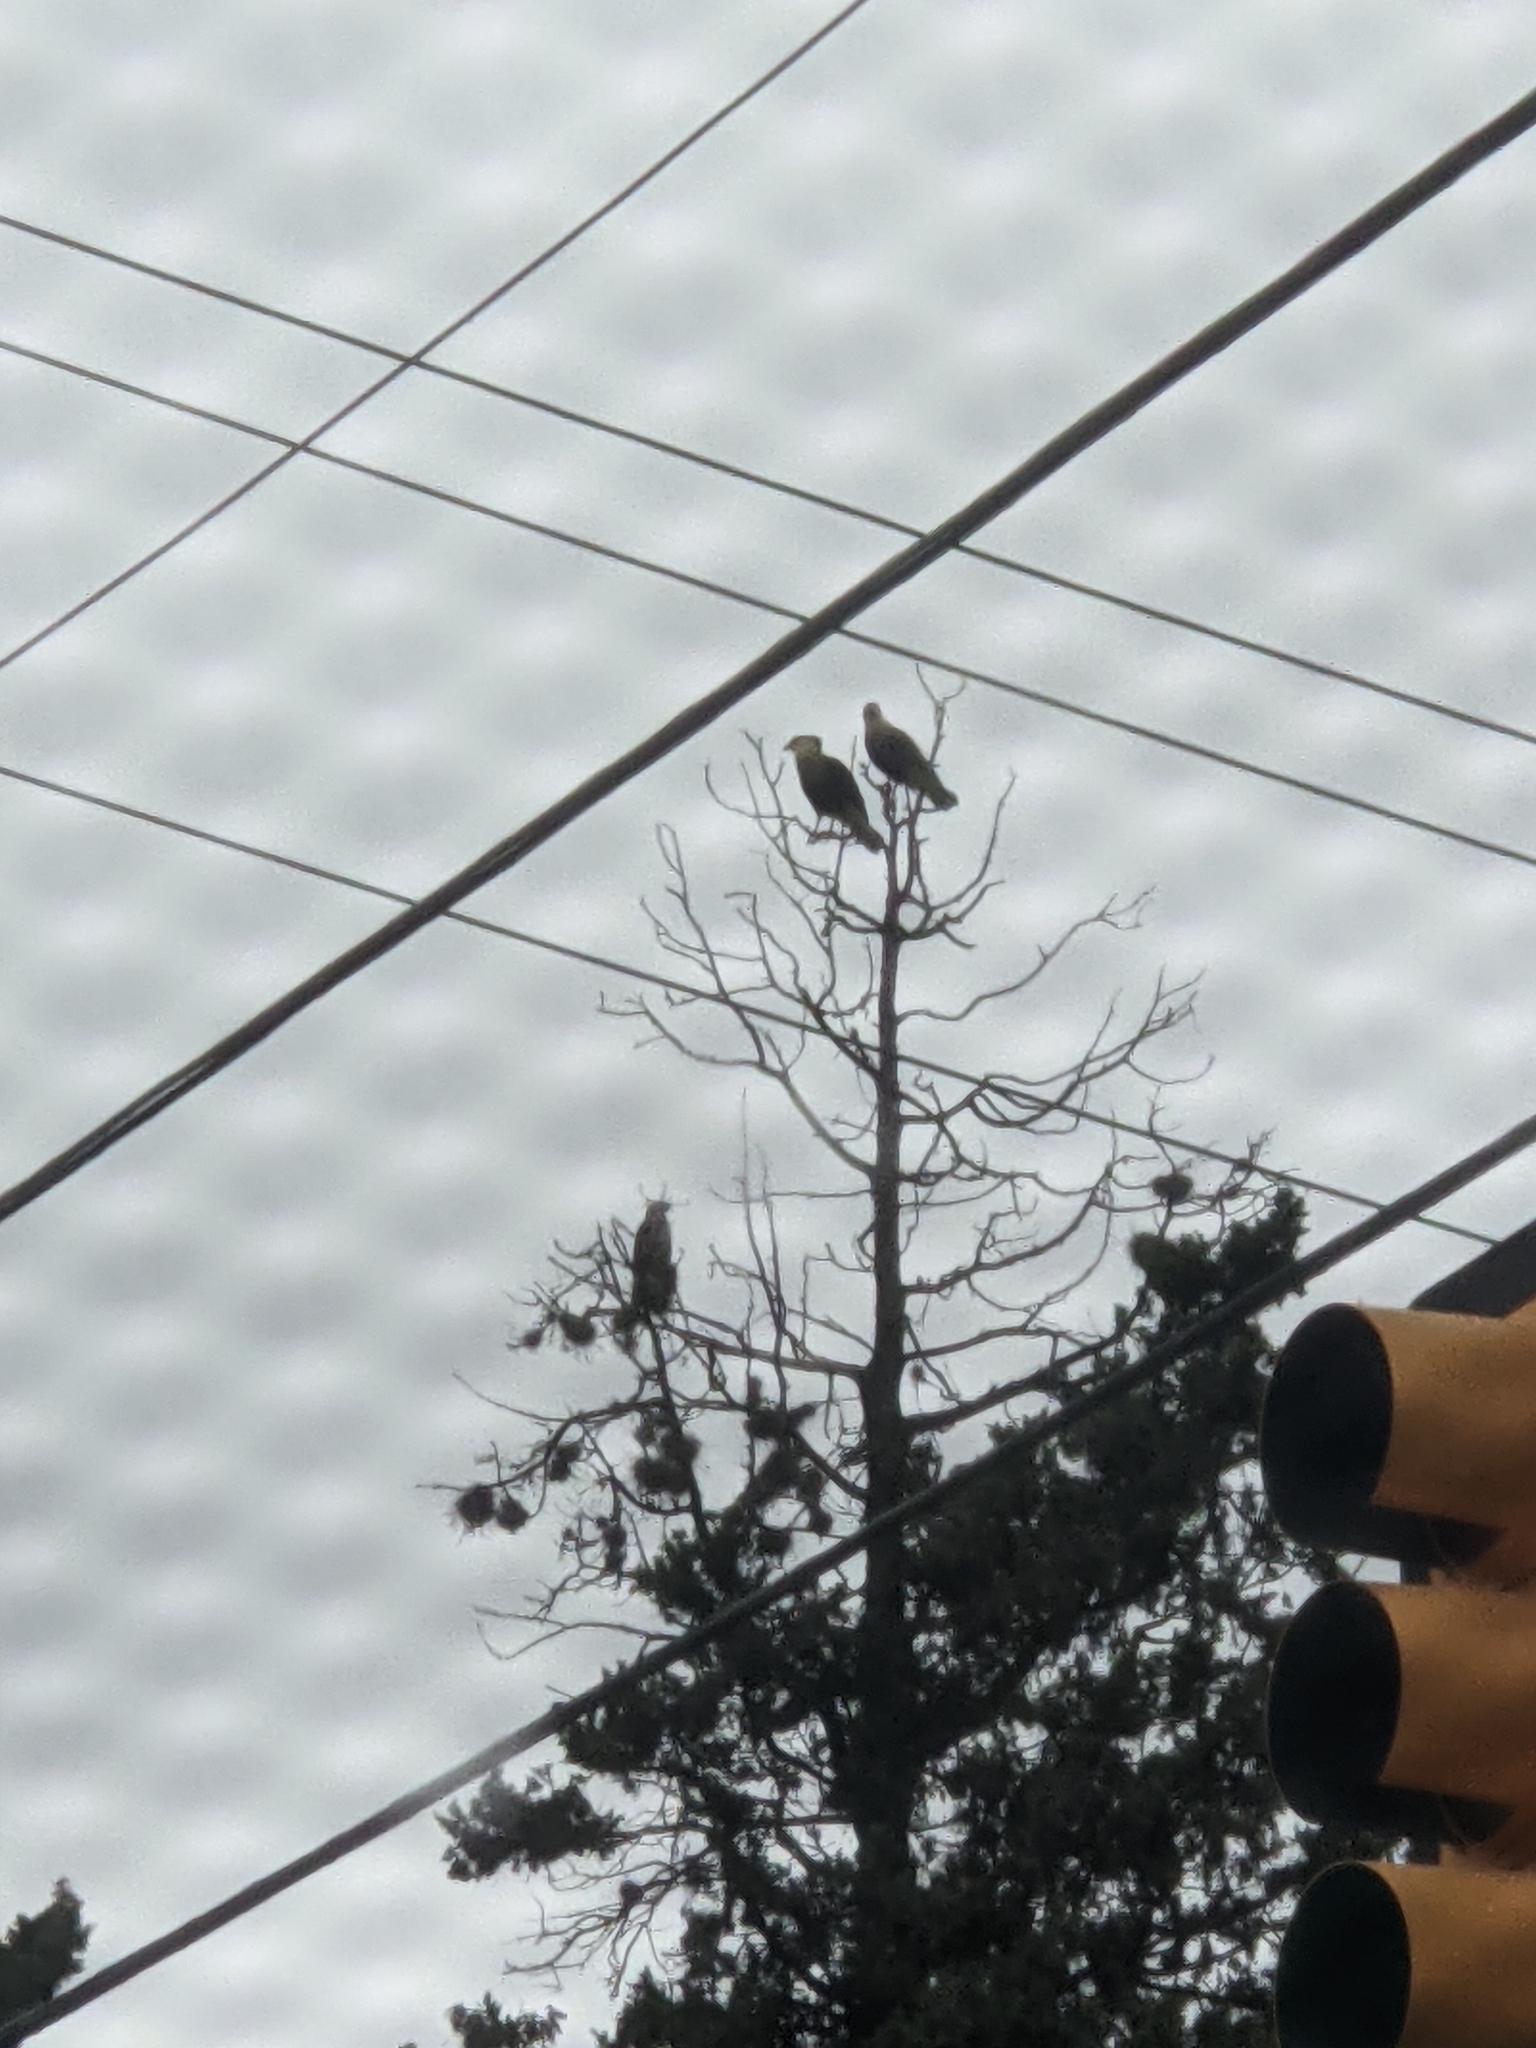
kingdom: Animalia
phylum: Chordata
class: Aves
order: Falconiformes
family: Falconidae
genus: Caracara
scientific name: Caracara plancus
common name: Southern caracara
